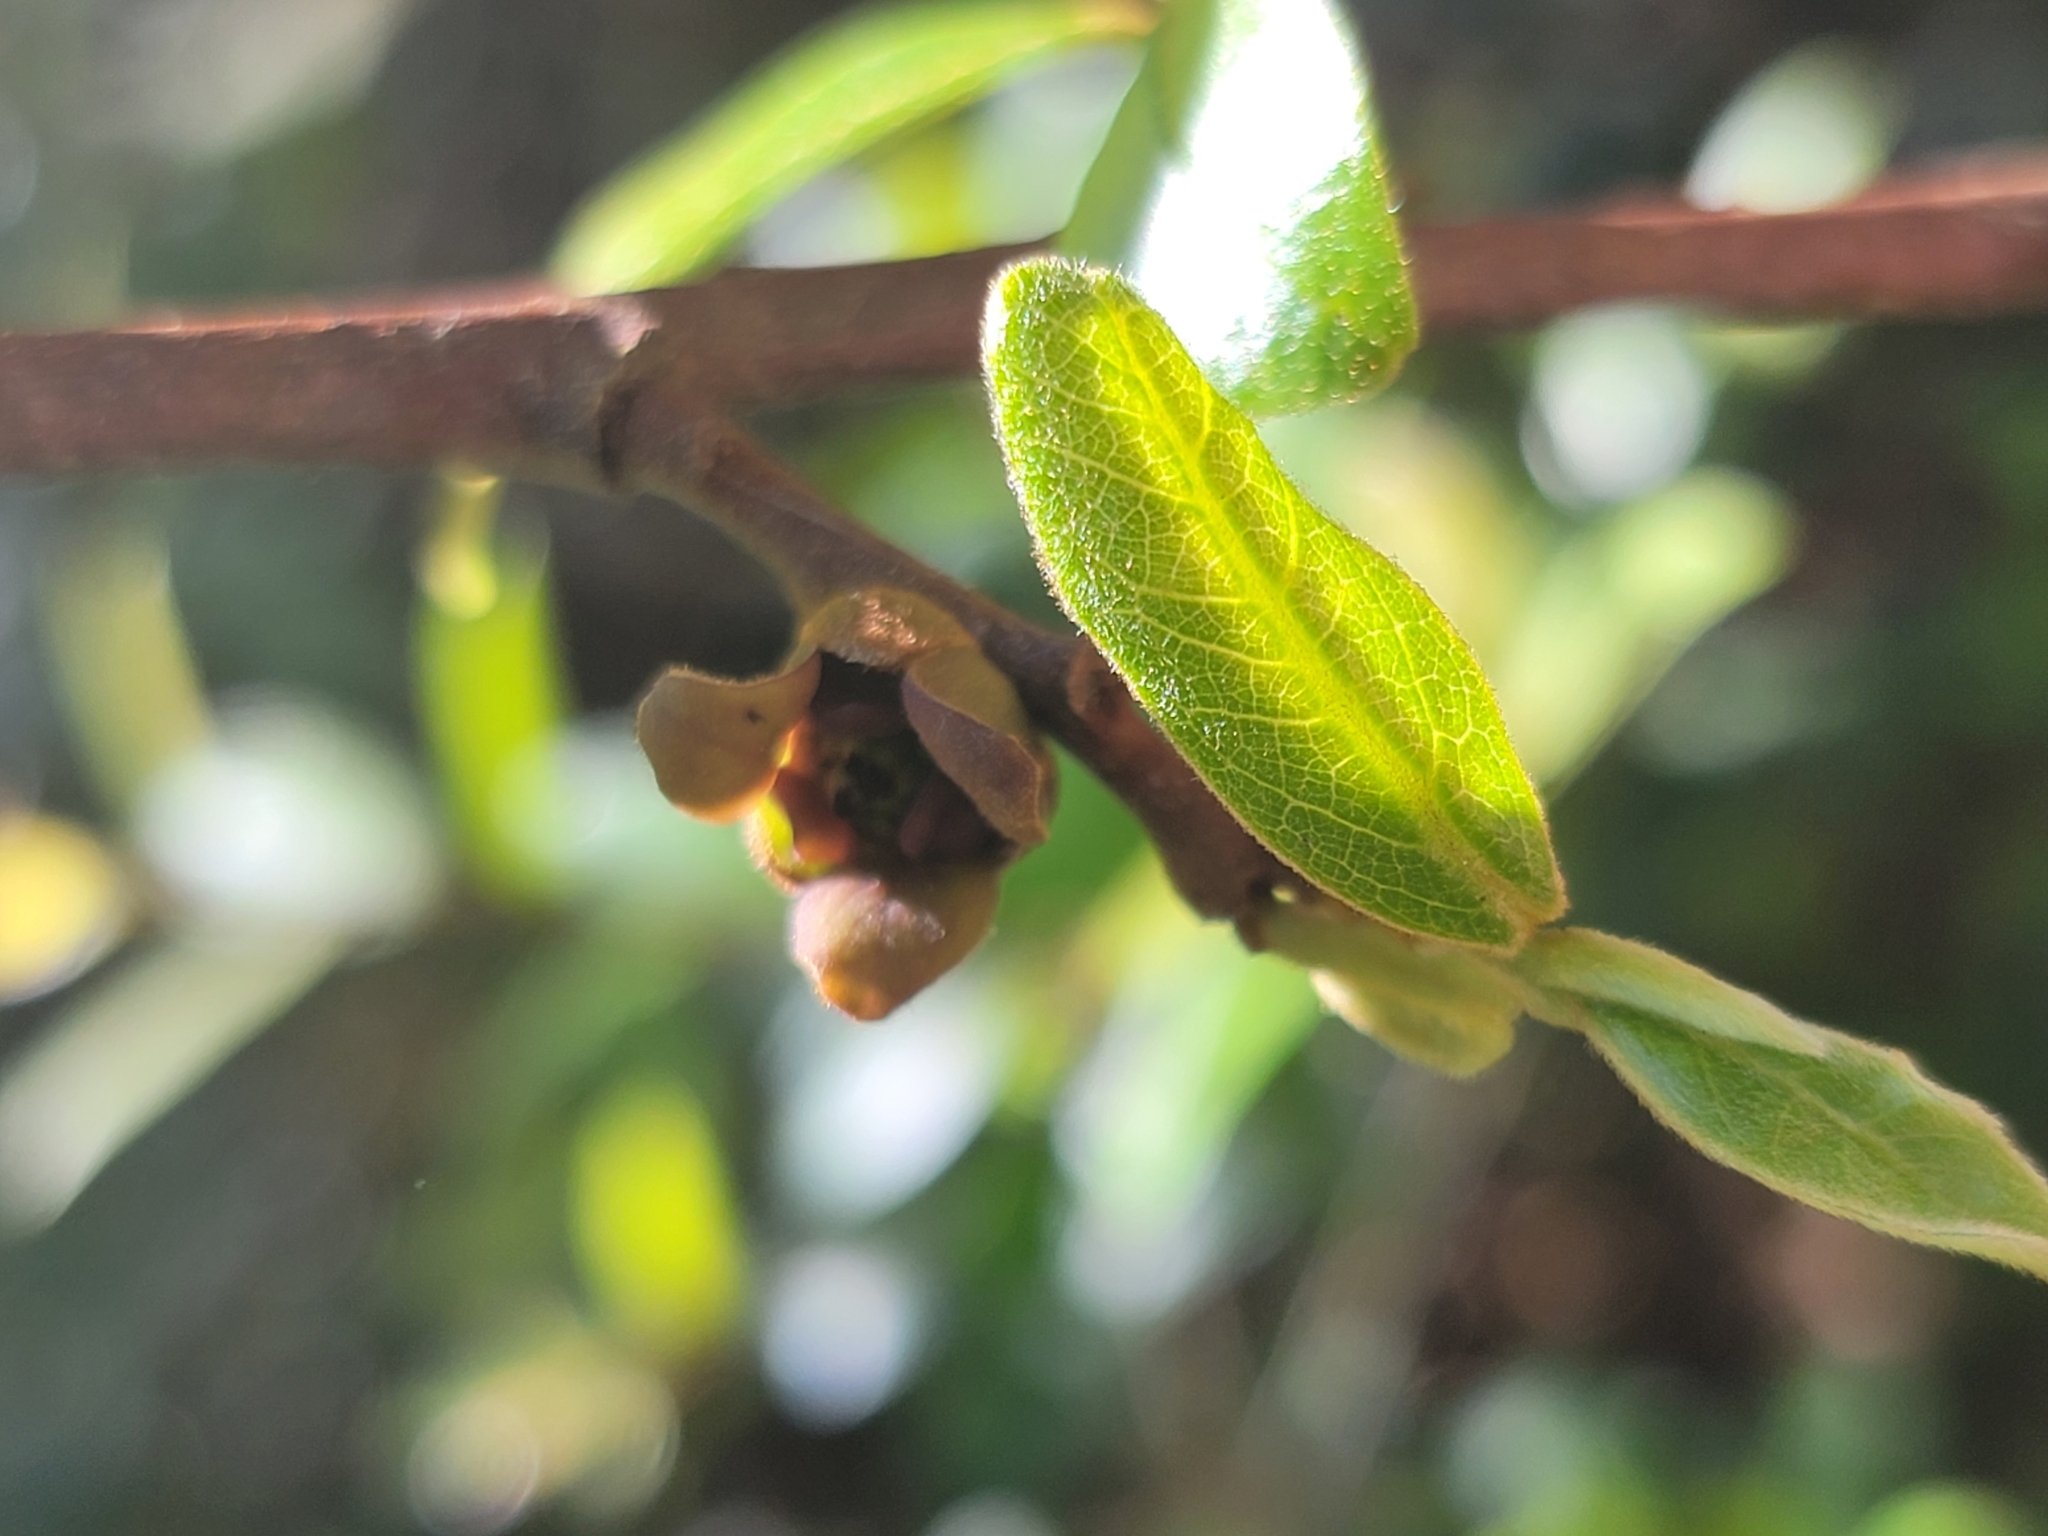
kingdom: Plantae
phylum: Tracheophyta
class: Magnoliopsida
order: Magnoliales
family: Annonaceae
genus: Asimina
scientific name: Asimina parviflora
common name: Dwarf pawpaw
